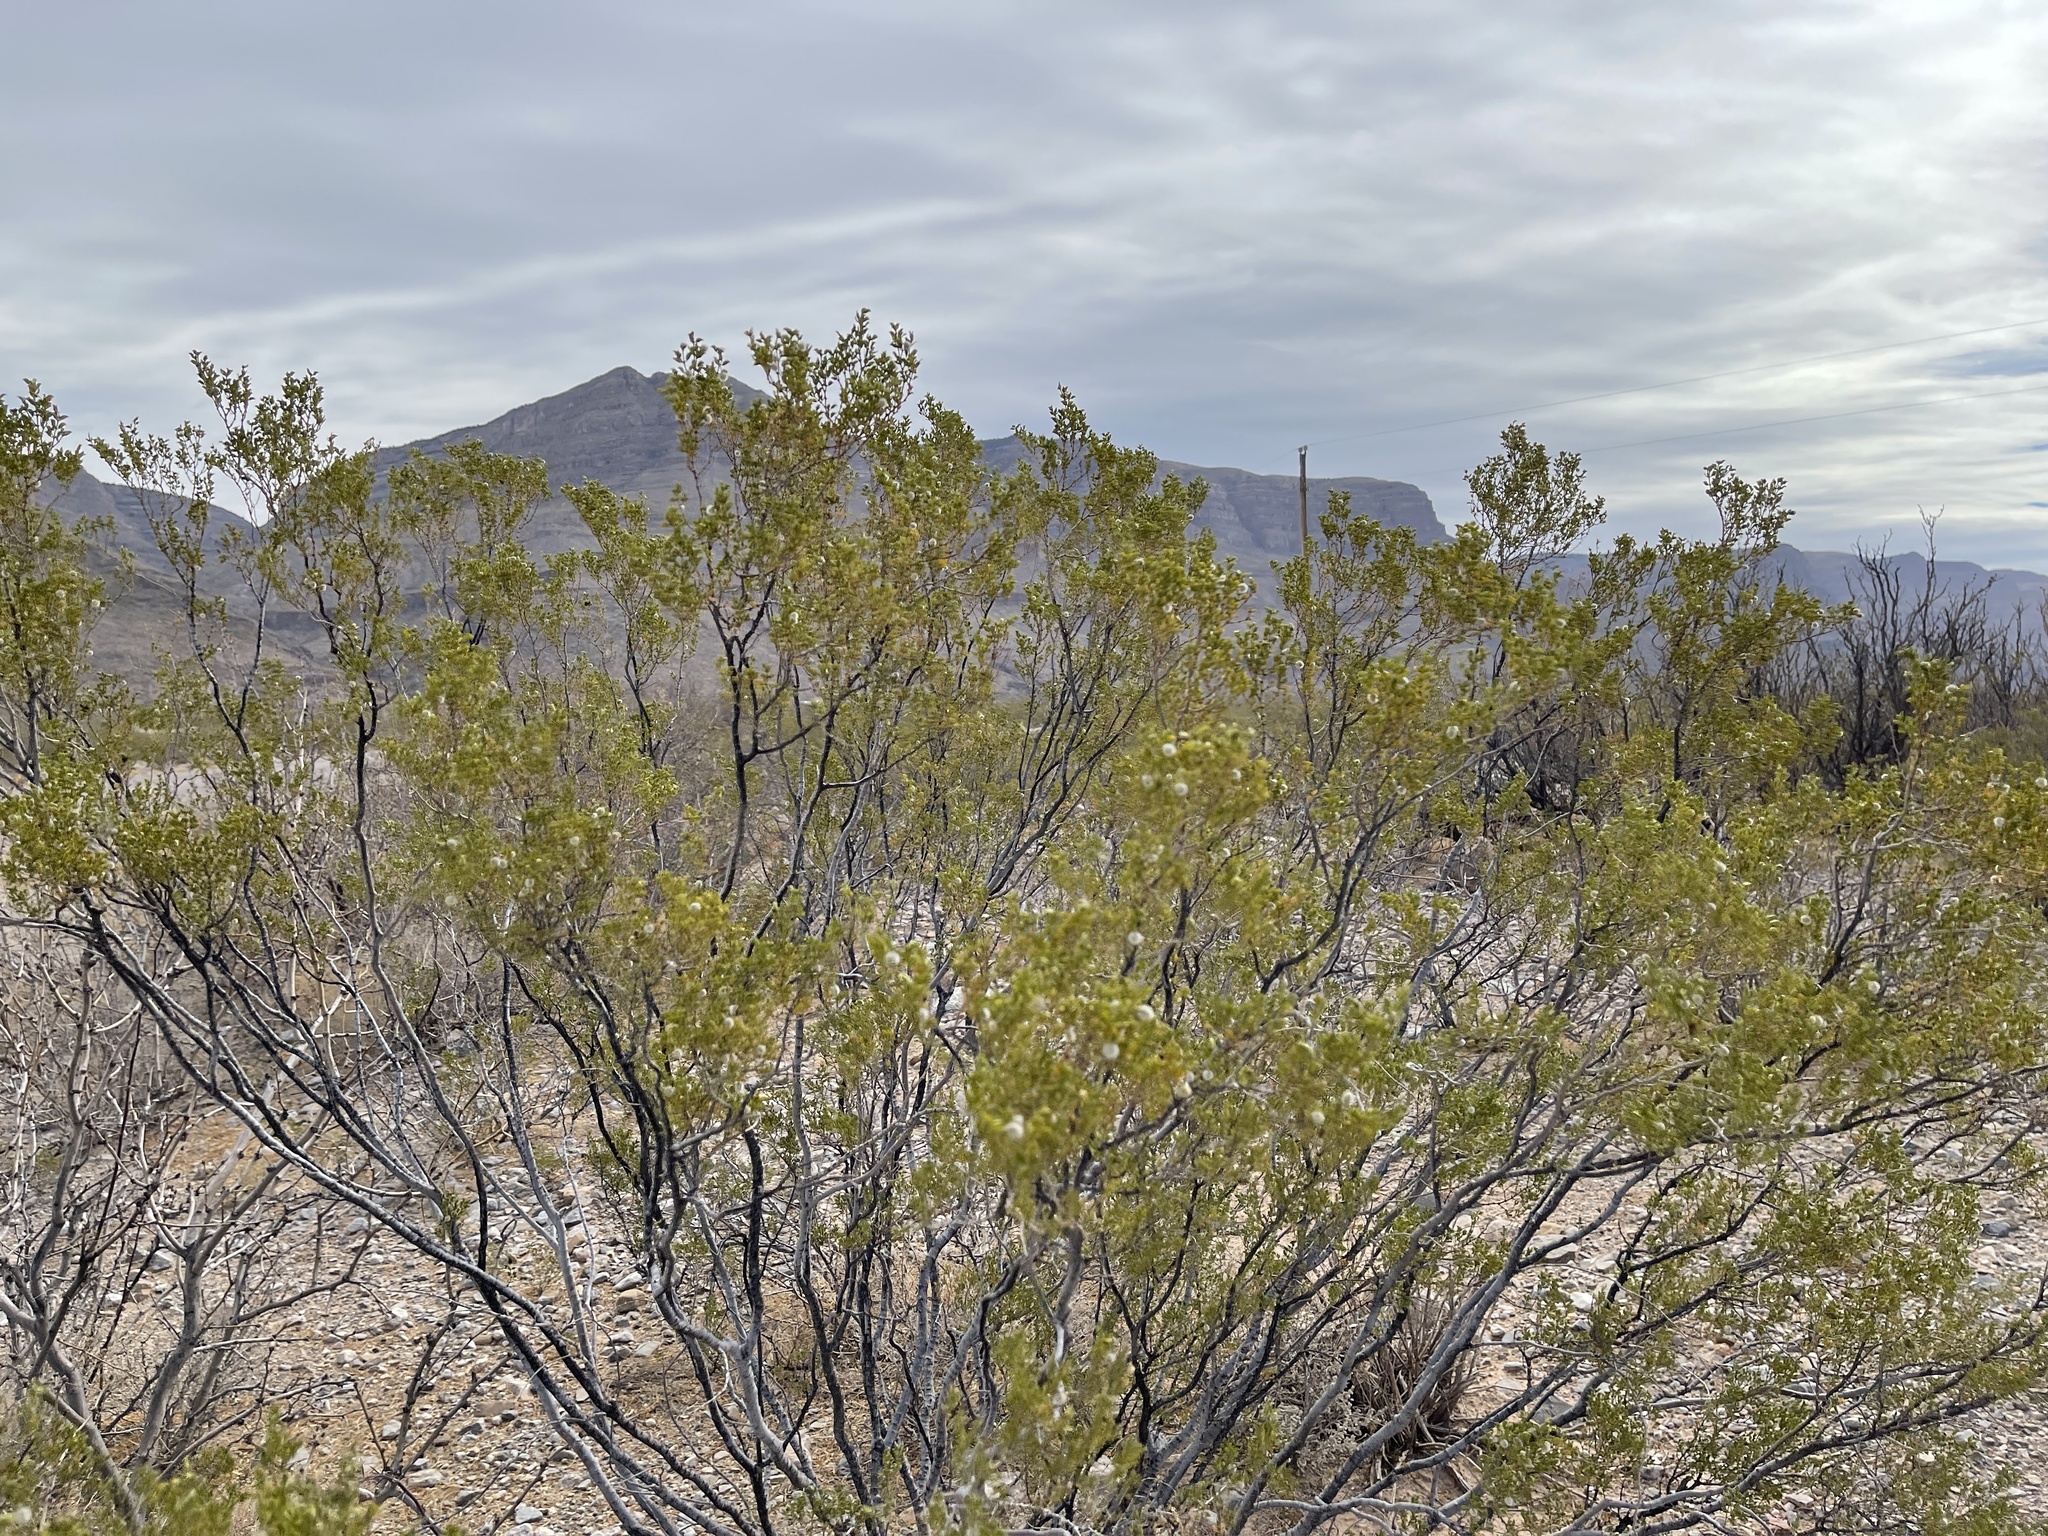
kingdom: Plantae
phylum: Tracheophyta
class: Magnoliopsida
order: Zygophyllales
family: Zygophyllaceae
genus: Larrea
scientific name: Larrea tridentata
